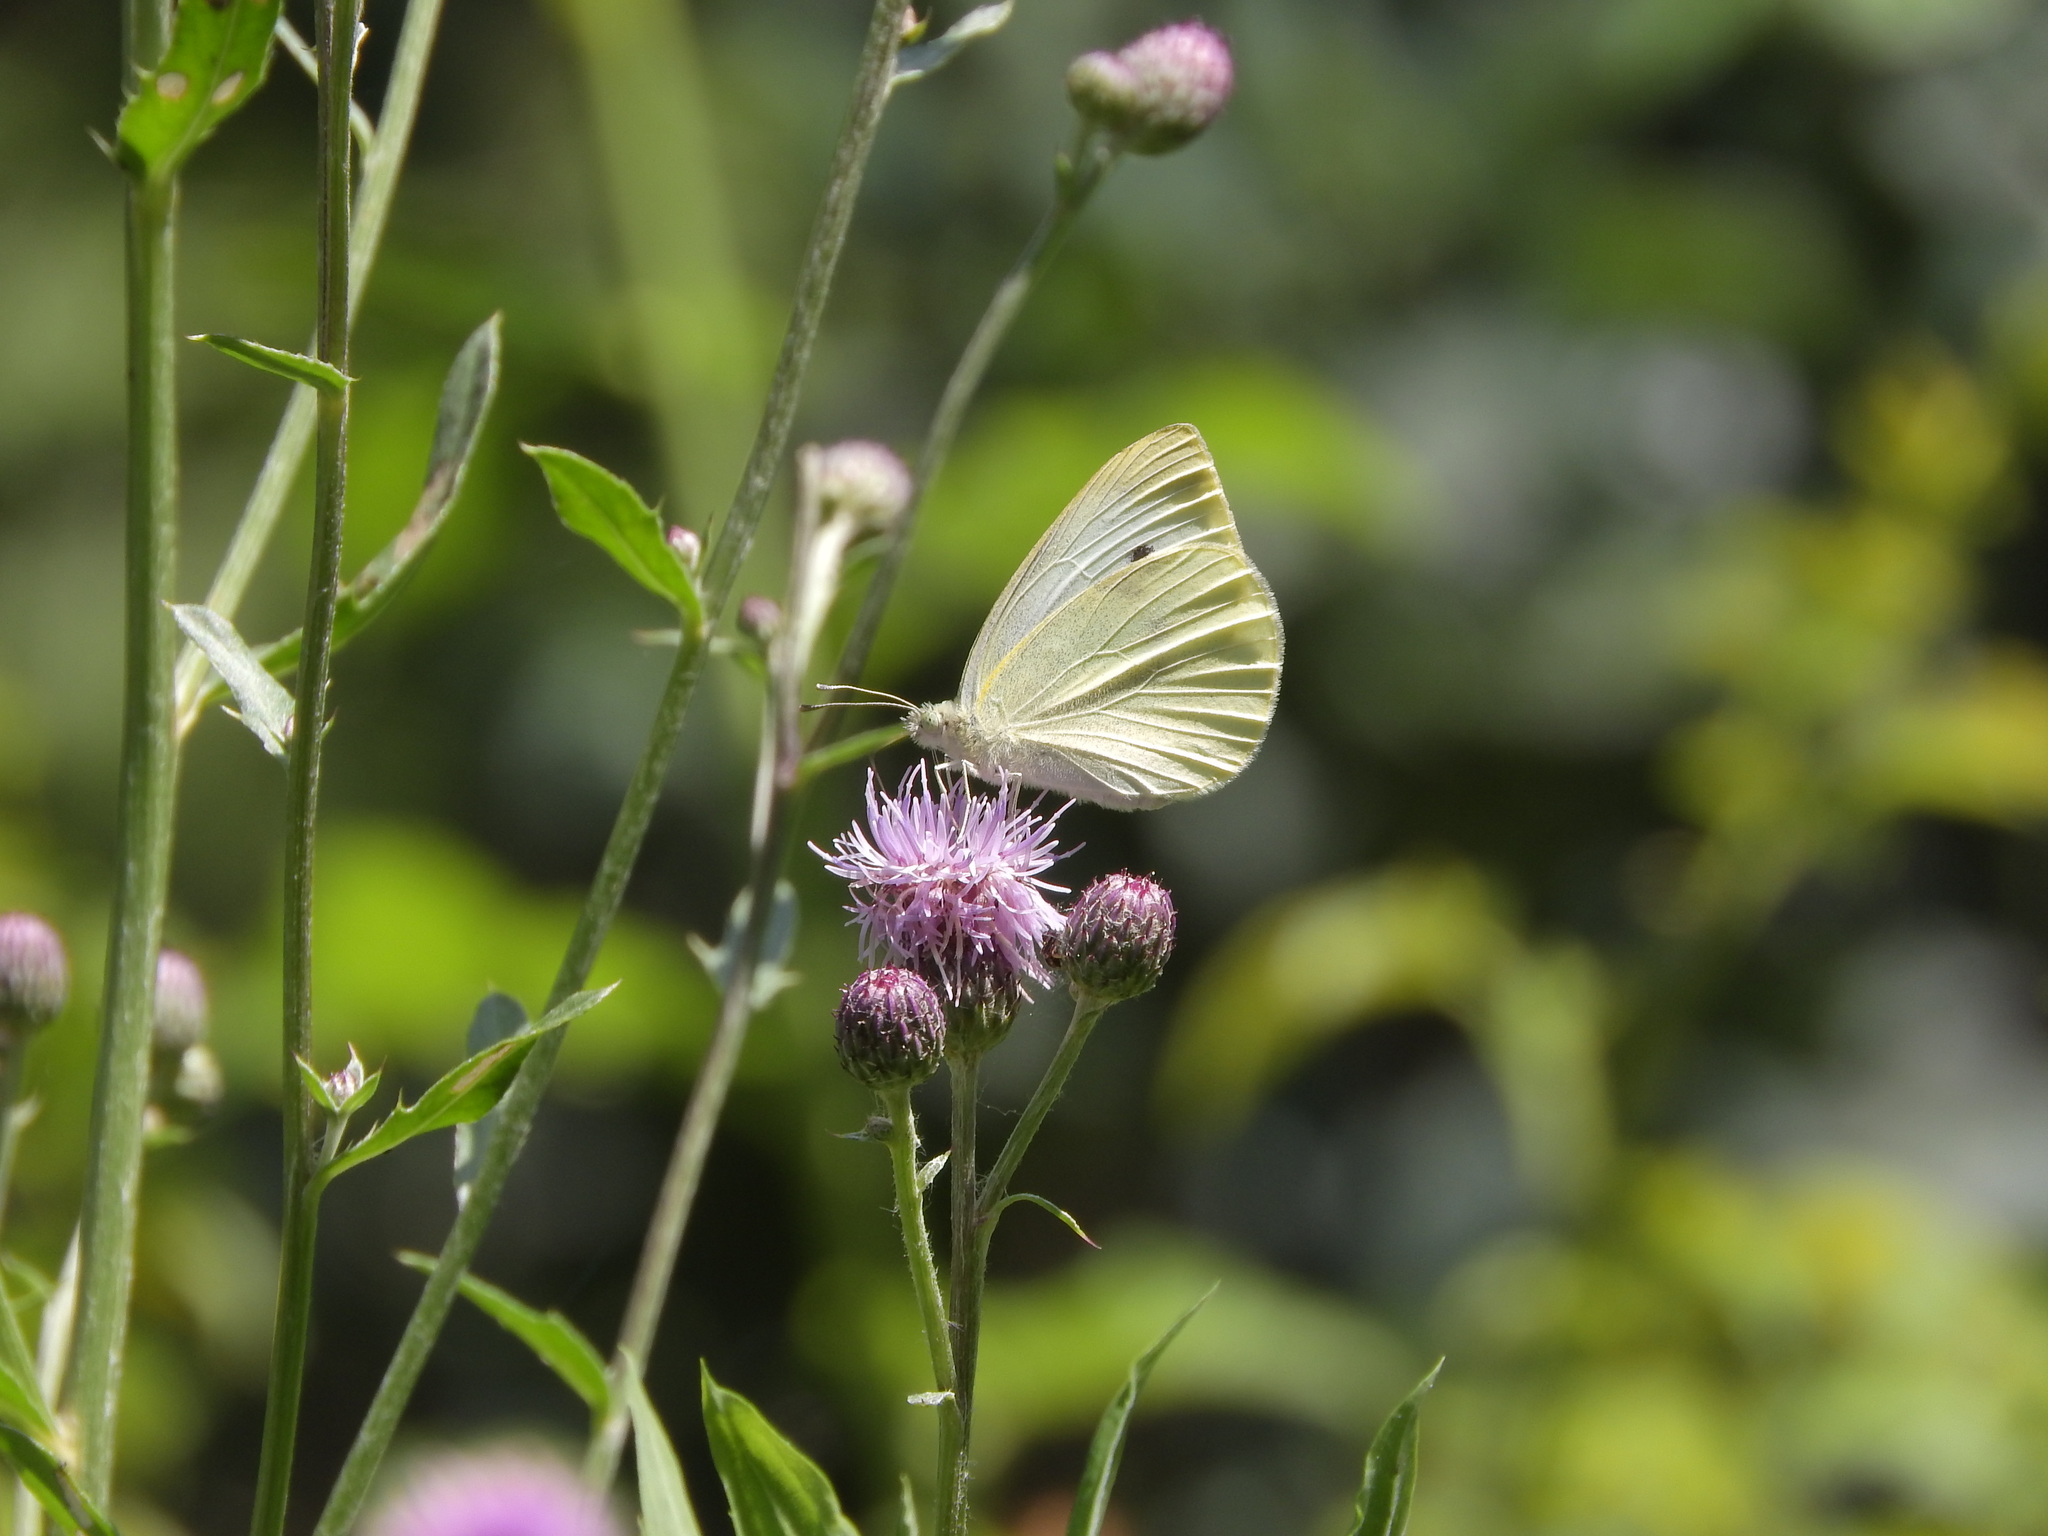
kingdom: Animalia
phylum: Arthropoda
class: Insecta
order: Lepidoptera
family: Pieridae
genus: Pieris
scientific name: Pieris brassicae
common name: Large white
